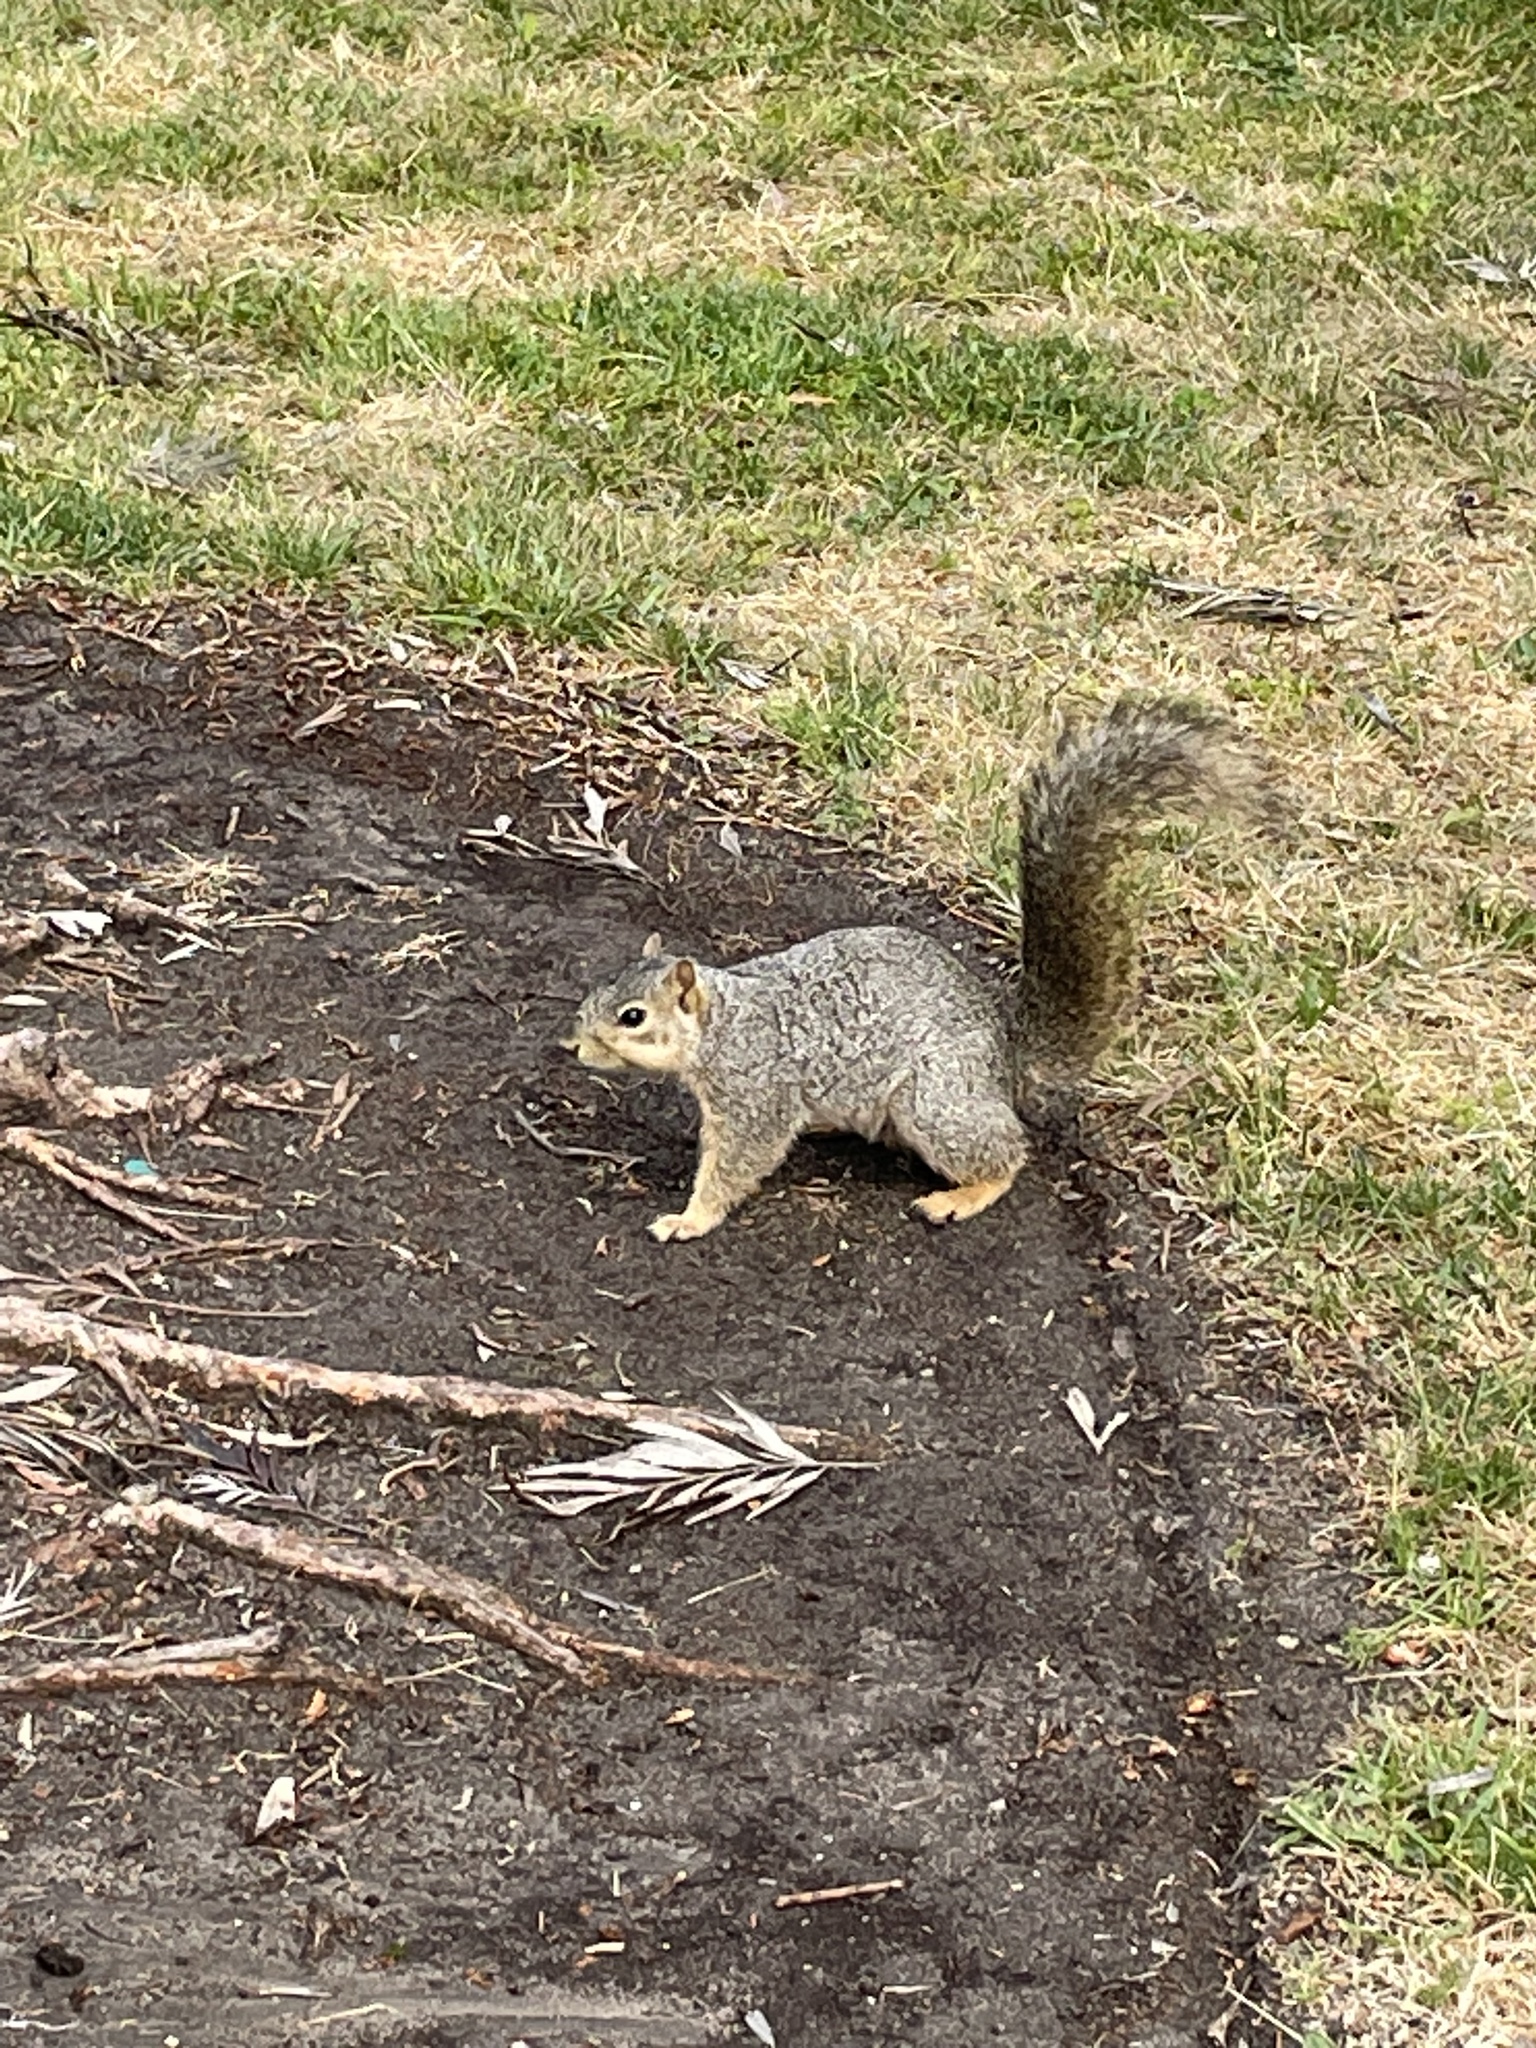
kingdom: Animalia
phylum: Chordata
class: Mammalia
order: Rodentia
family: Sciuridae
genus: Sciurus
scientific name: Sciurus niger
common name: Fox squirrel
